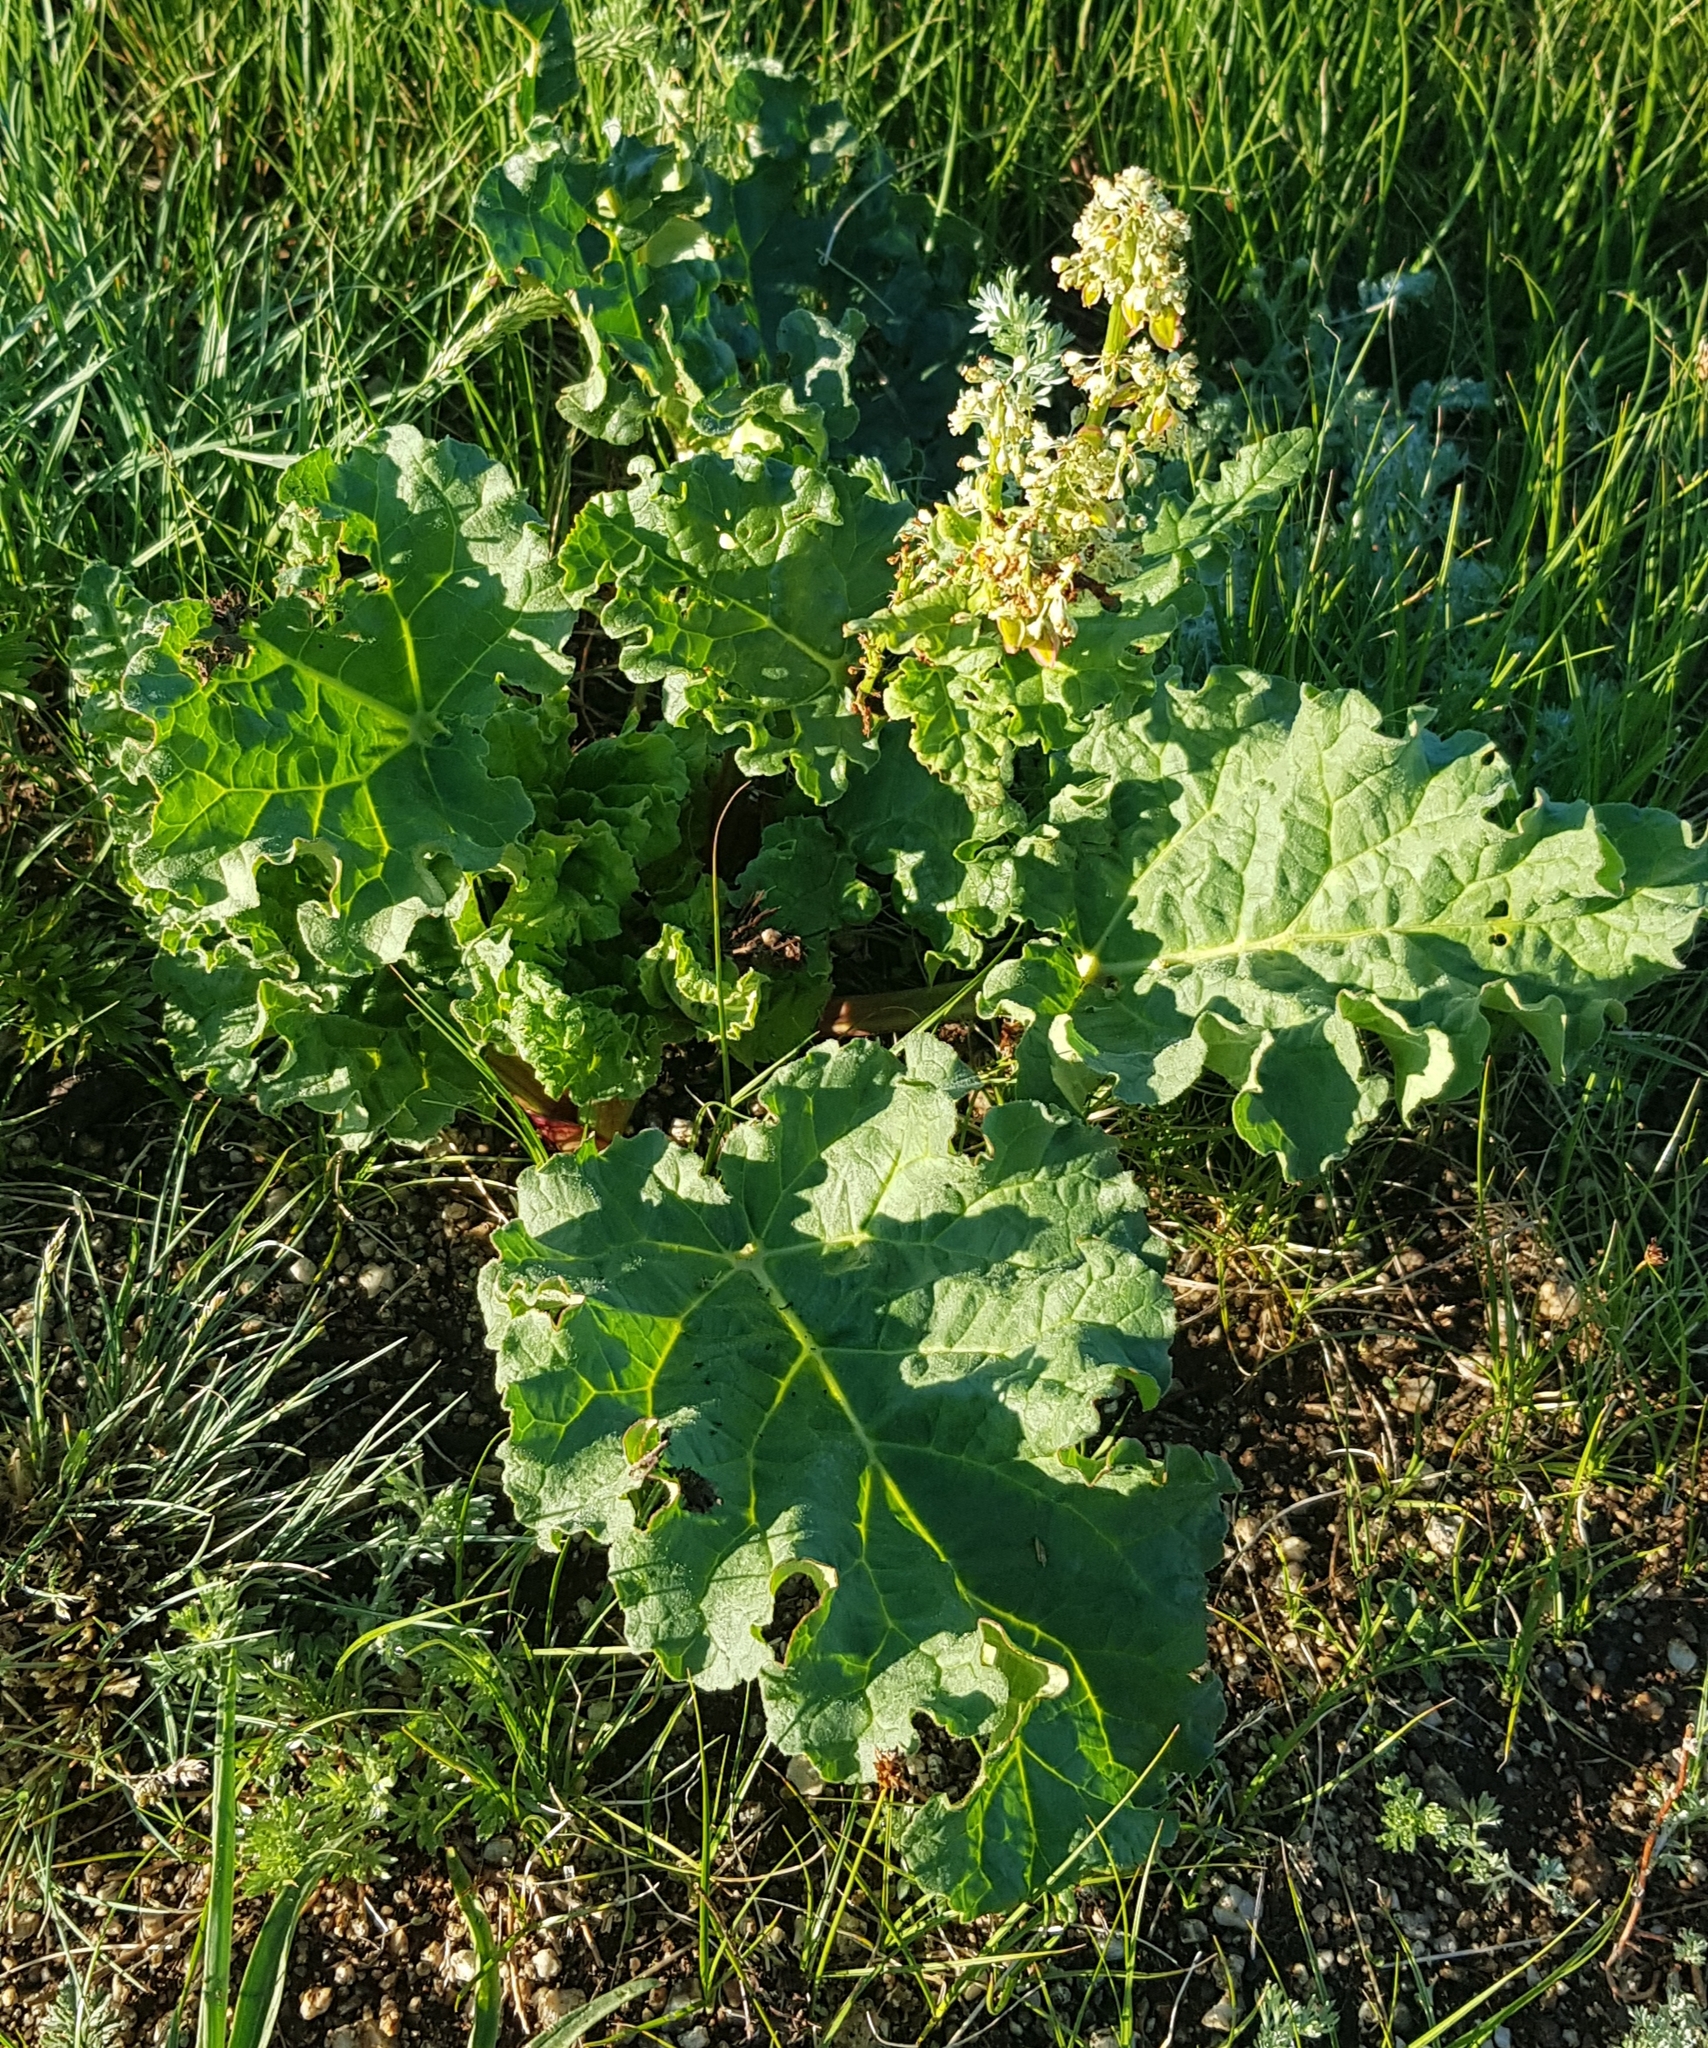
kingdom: Plantae
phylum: Tracheophyta
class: Magnoliopsida
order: Caryophyllales
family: Polygonaceae
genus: Rheum
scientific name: Rheum rhabarbarum
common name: Garden rhubarb
